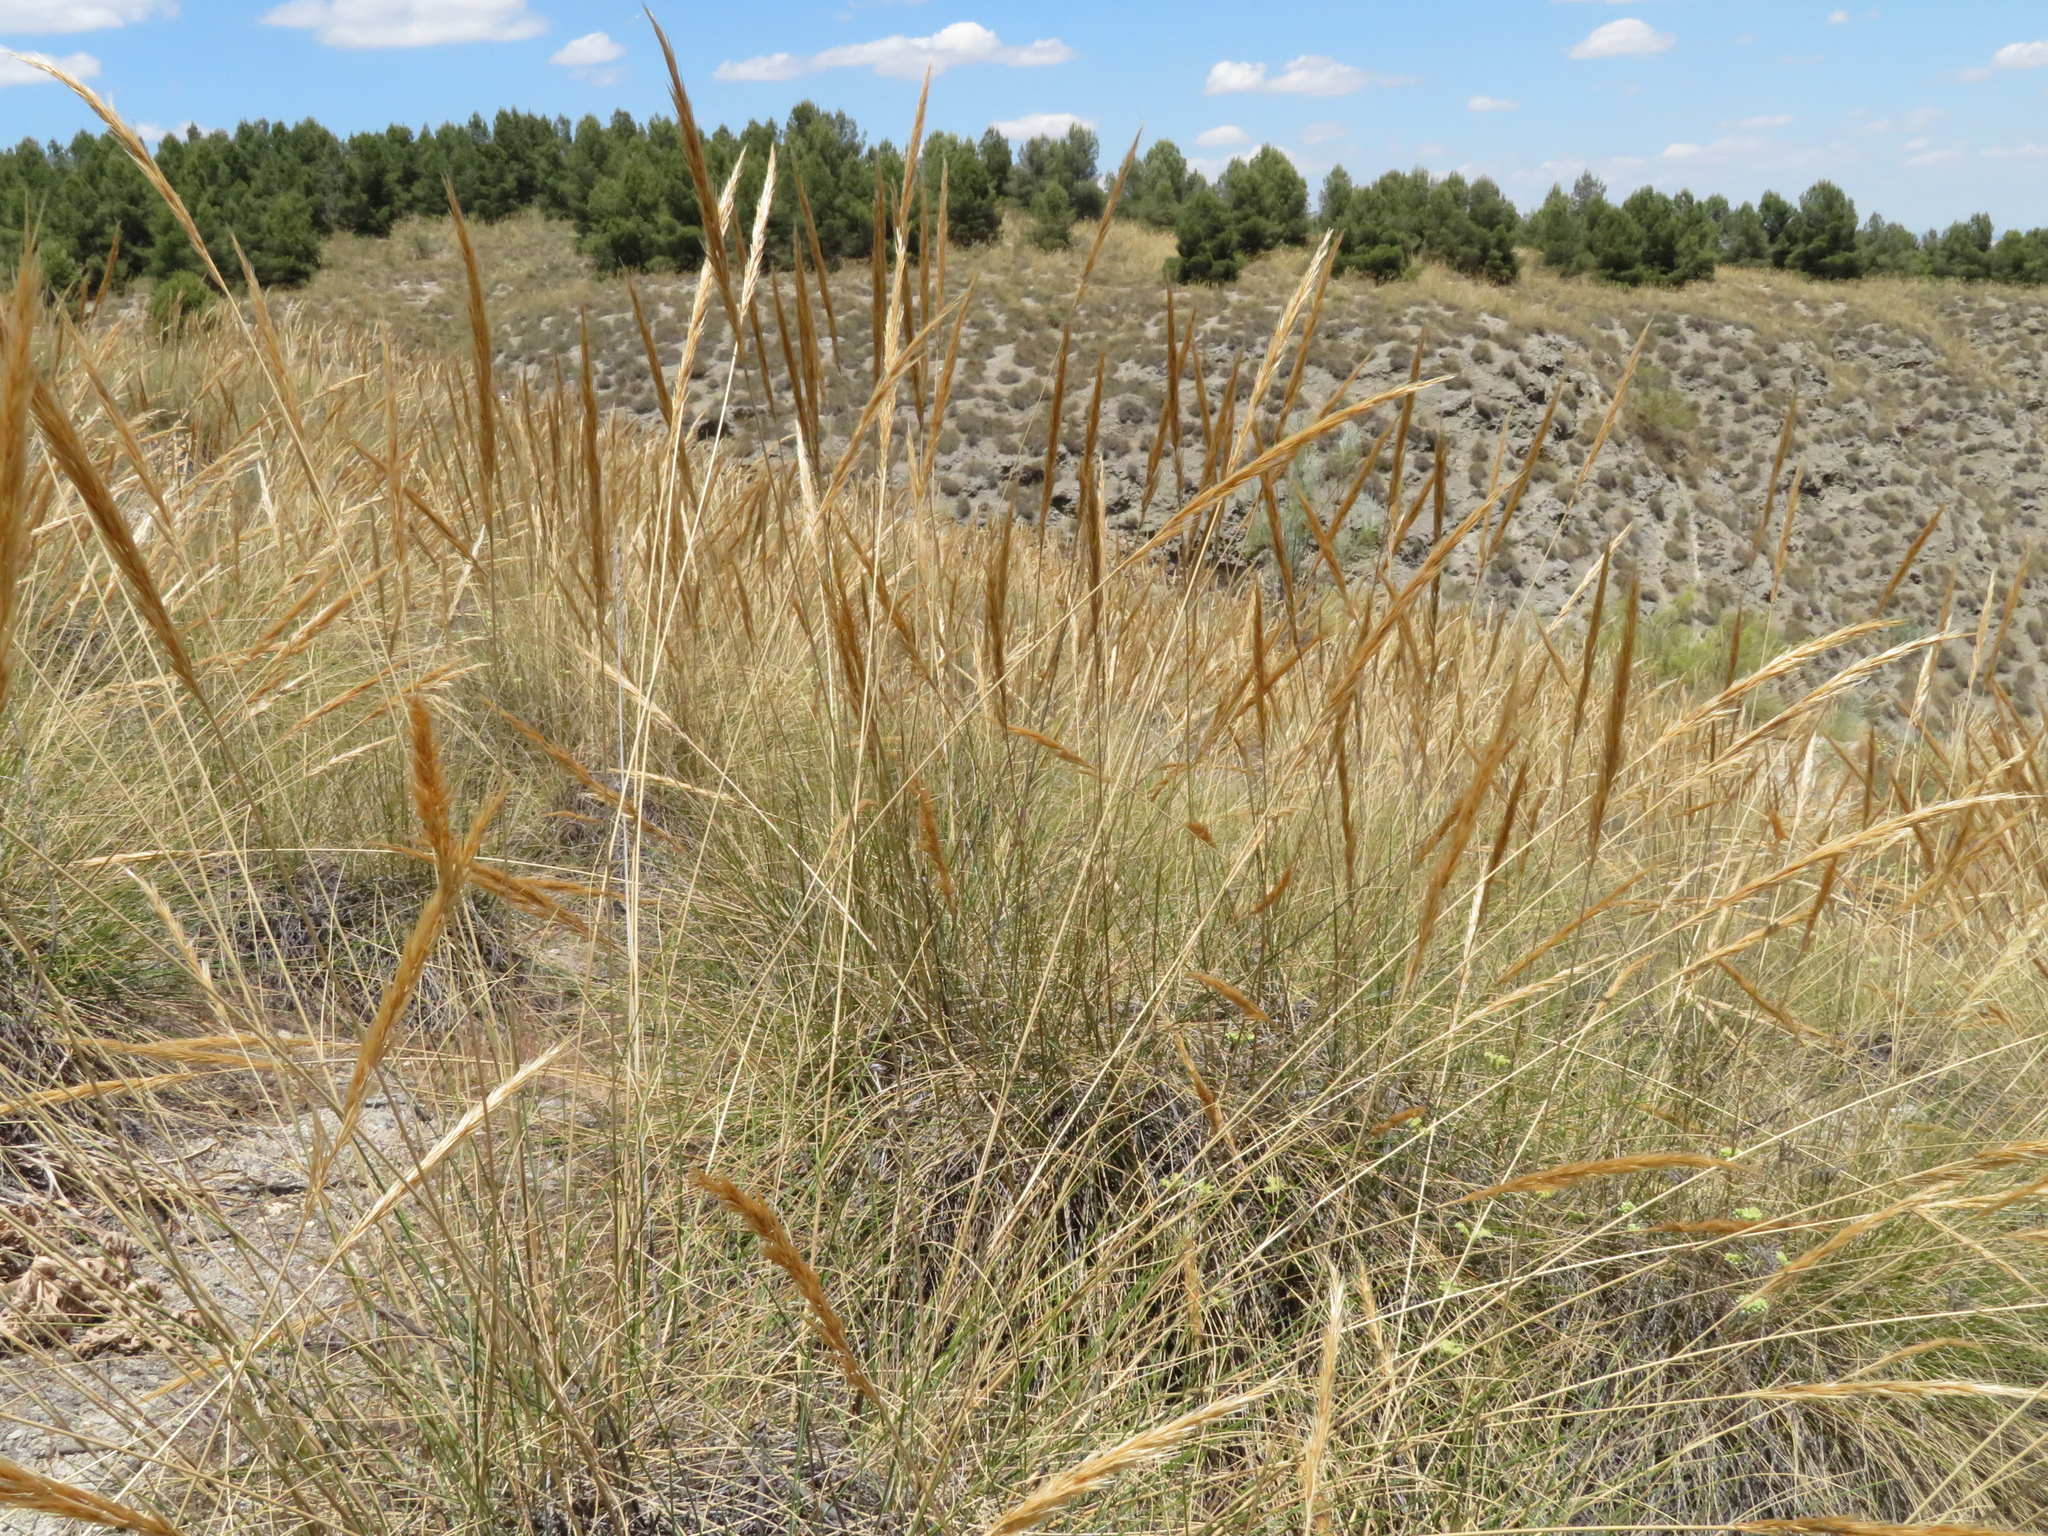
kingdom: Plantae
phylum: Tracheophyta
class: Liliopsida
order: Poales
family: Poaceae
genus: Macrochloa
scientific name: Macrochloa tenacissima
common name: Alfa grass
